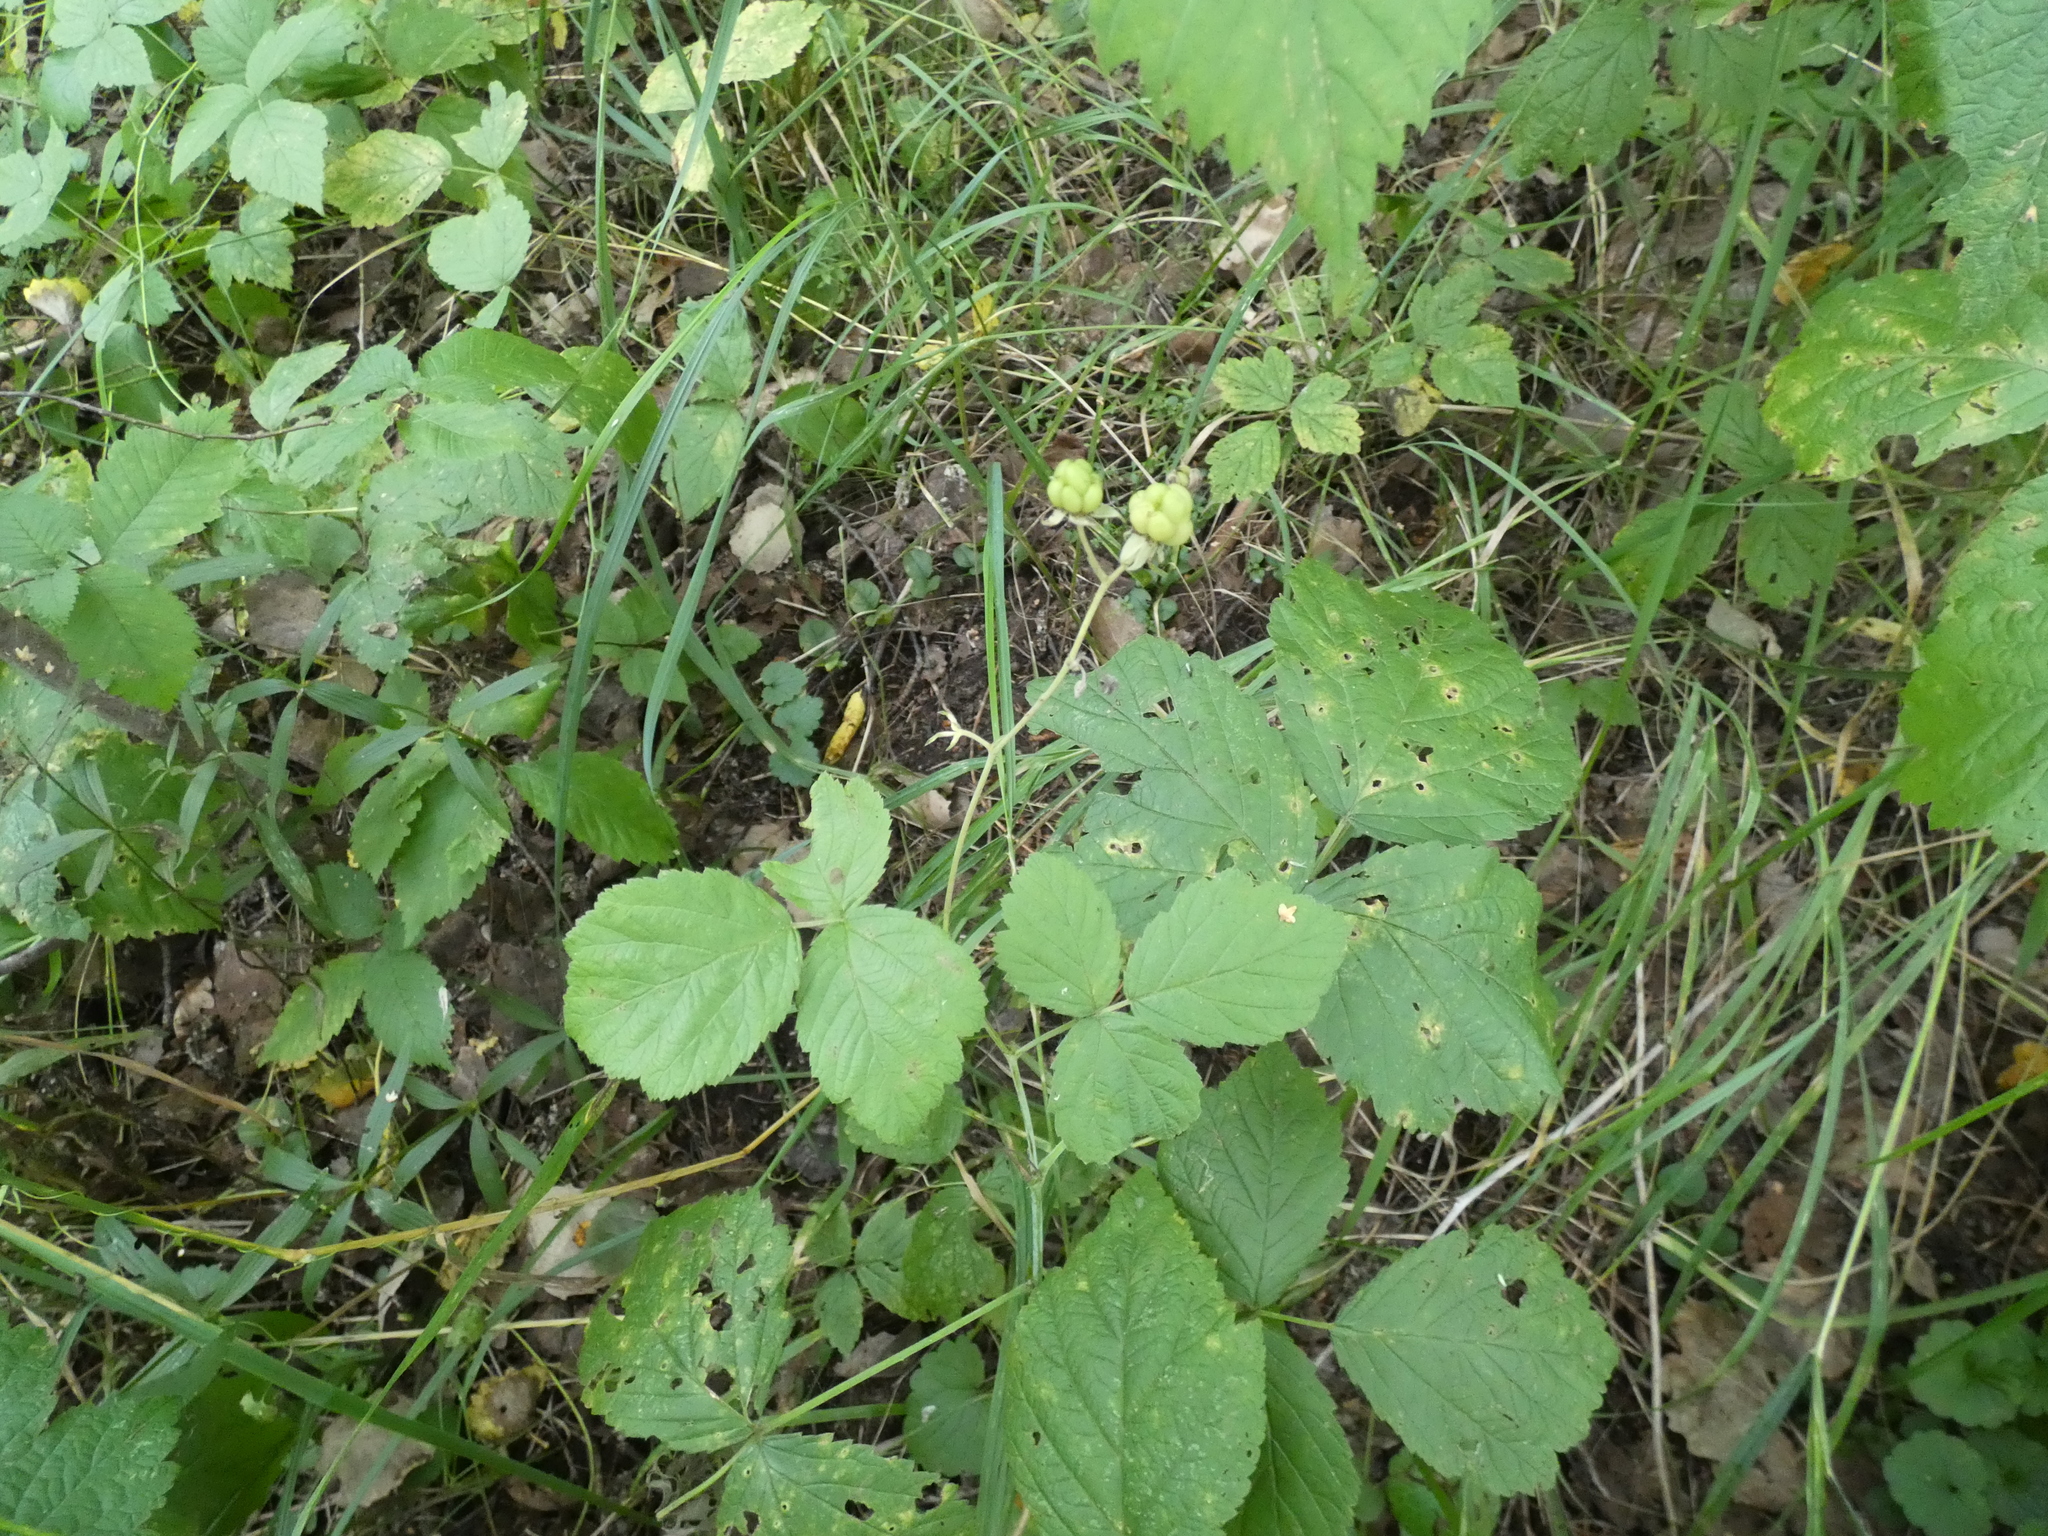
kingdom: Plantae
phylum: Tracheophyta
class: Magnoliopsida
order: Rosales
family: Rosaceae
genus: Rubus
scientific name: Rubus caesius
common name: Dewberry
